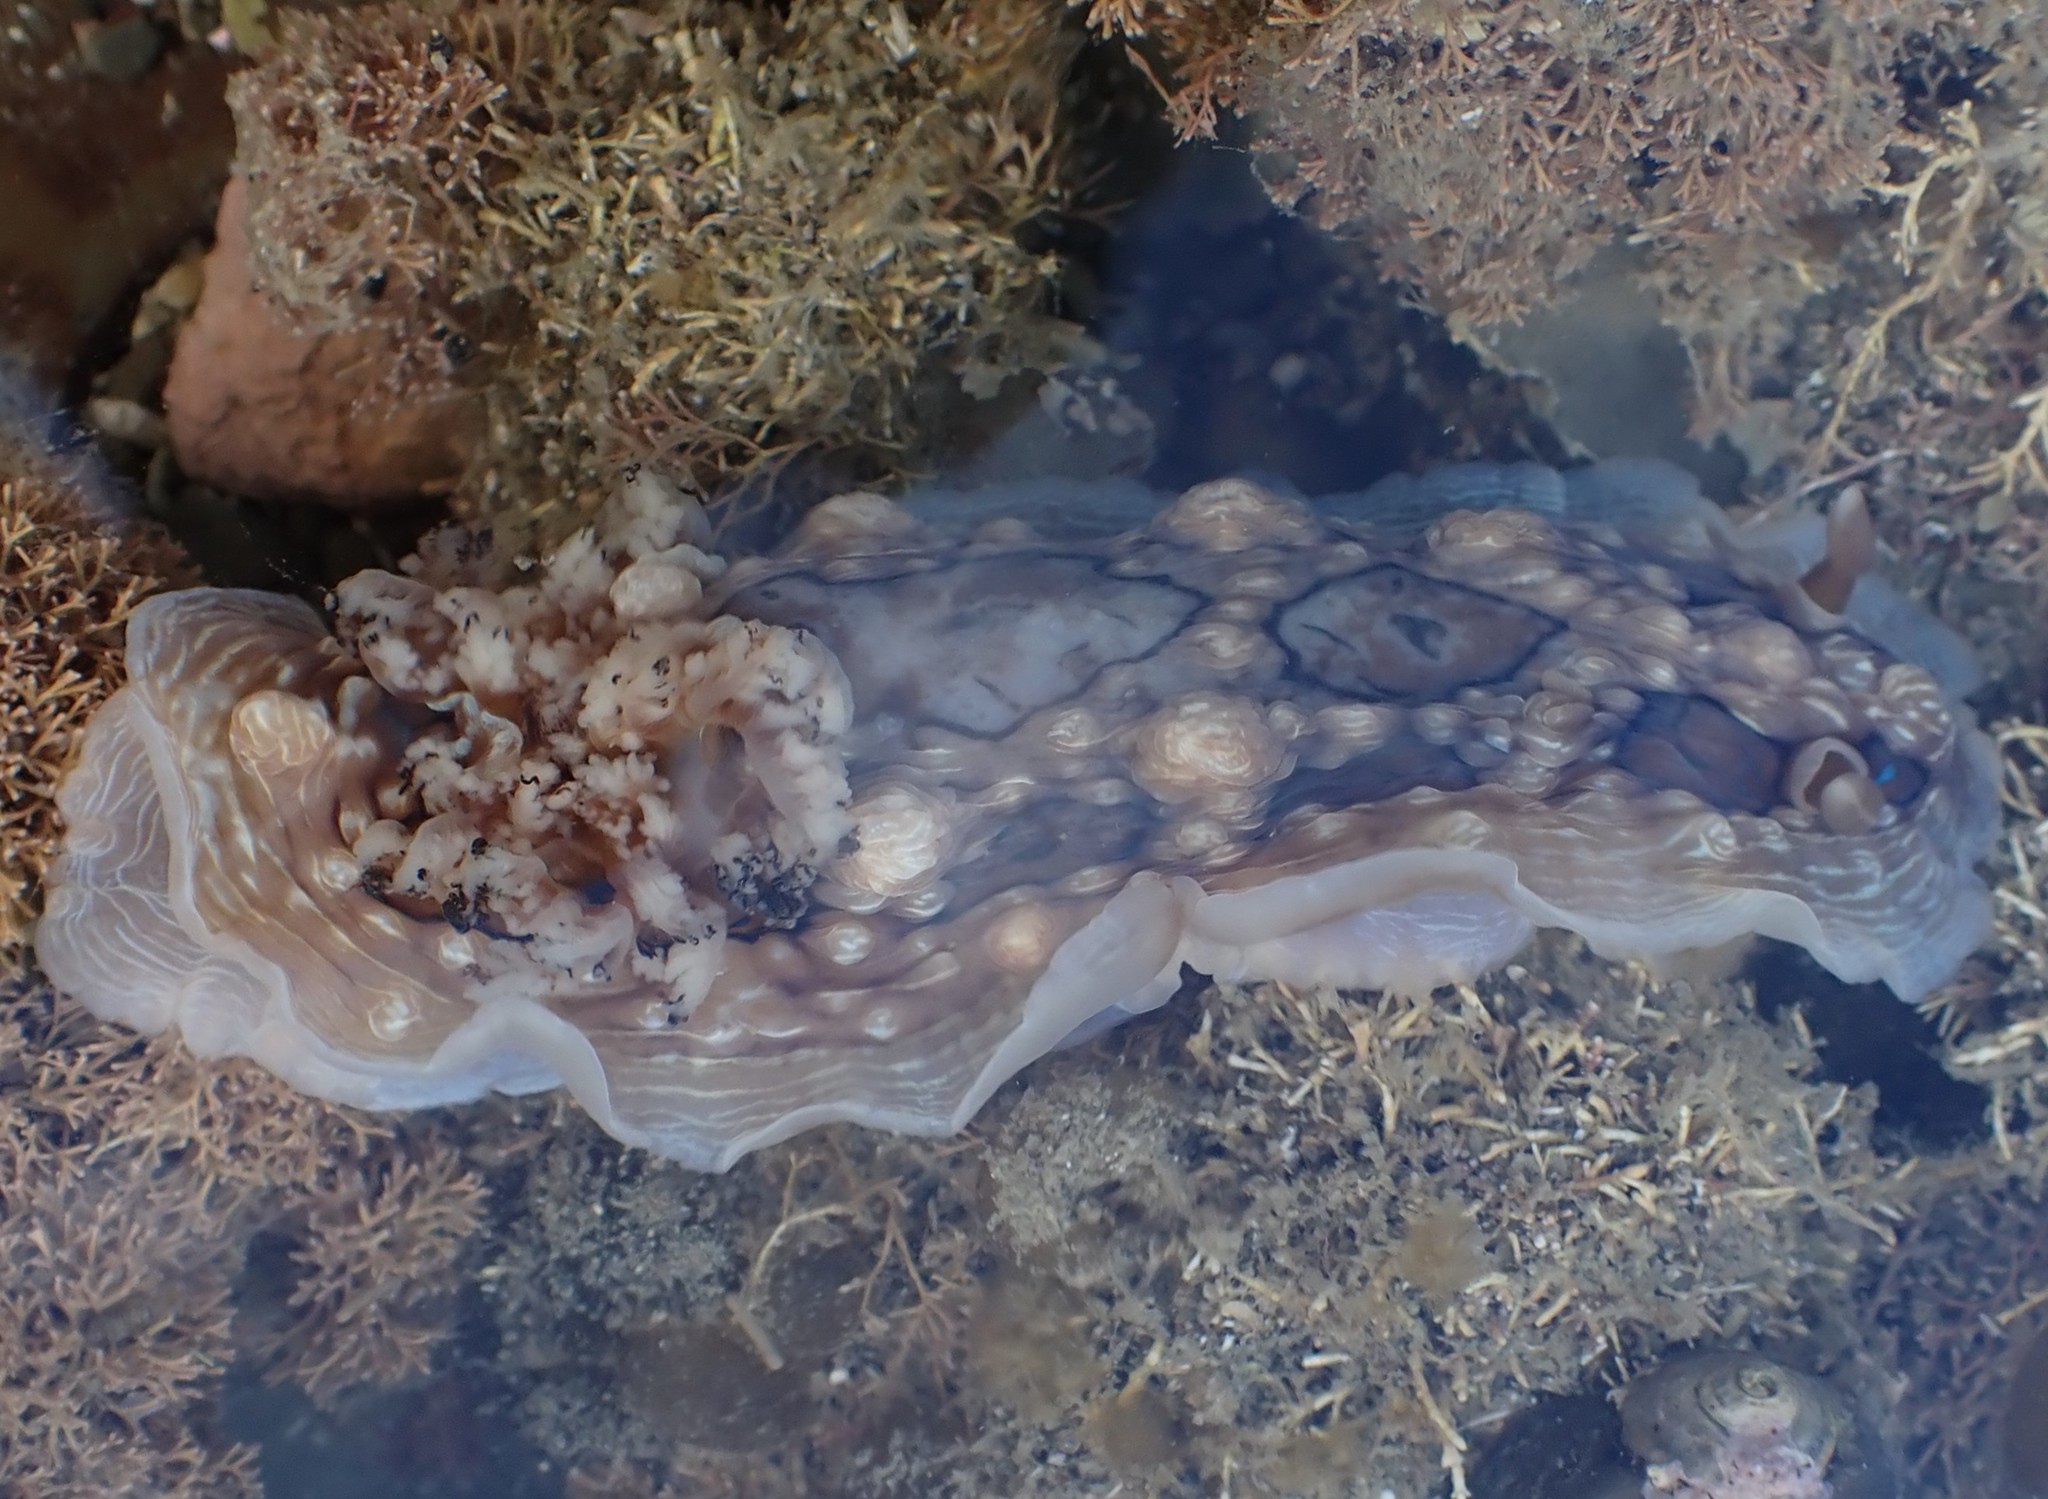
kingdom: Animalia
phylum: Mollusca
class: Gastropoda
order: Nudibranchia
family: Dendrodorididae
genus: Dendrodoris
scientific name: Dendrodoris krusensternii
